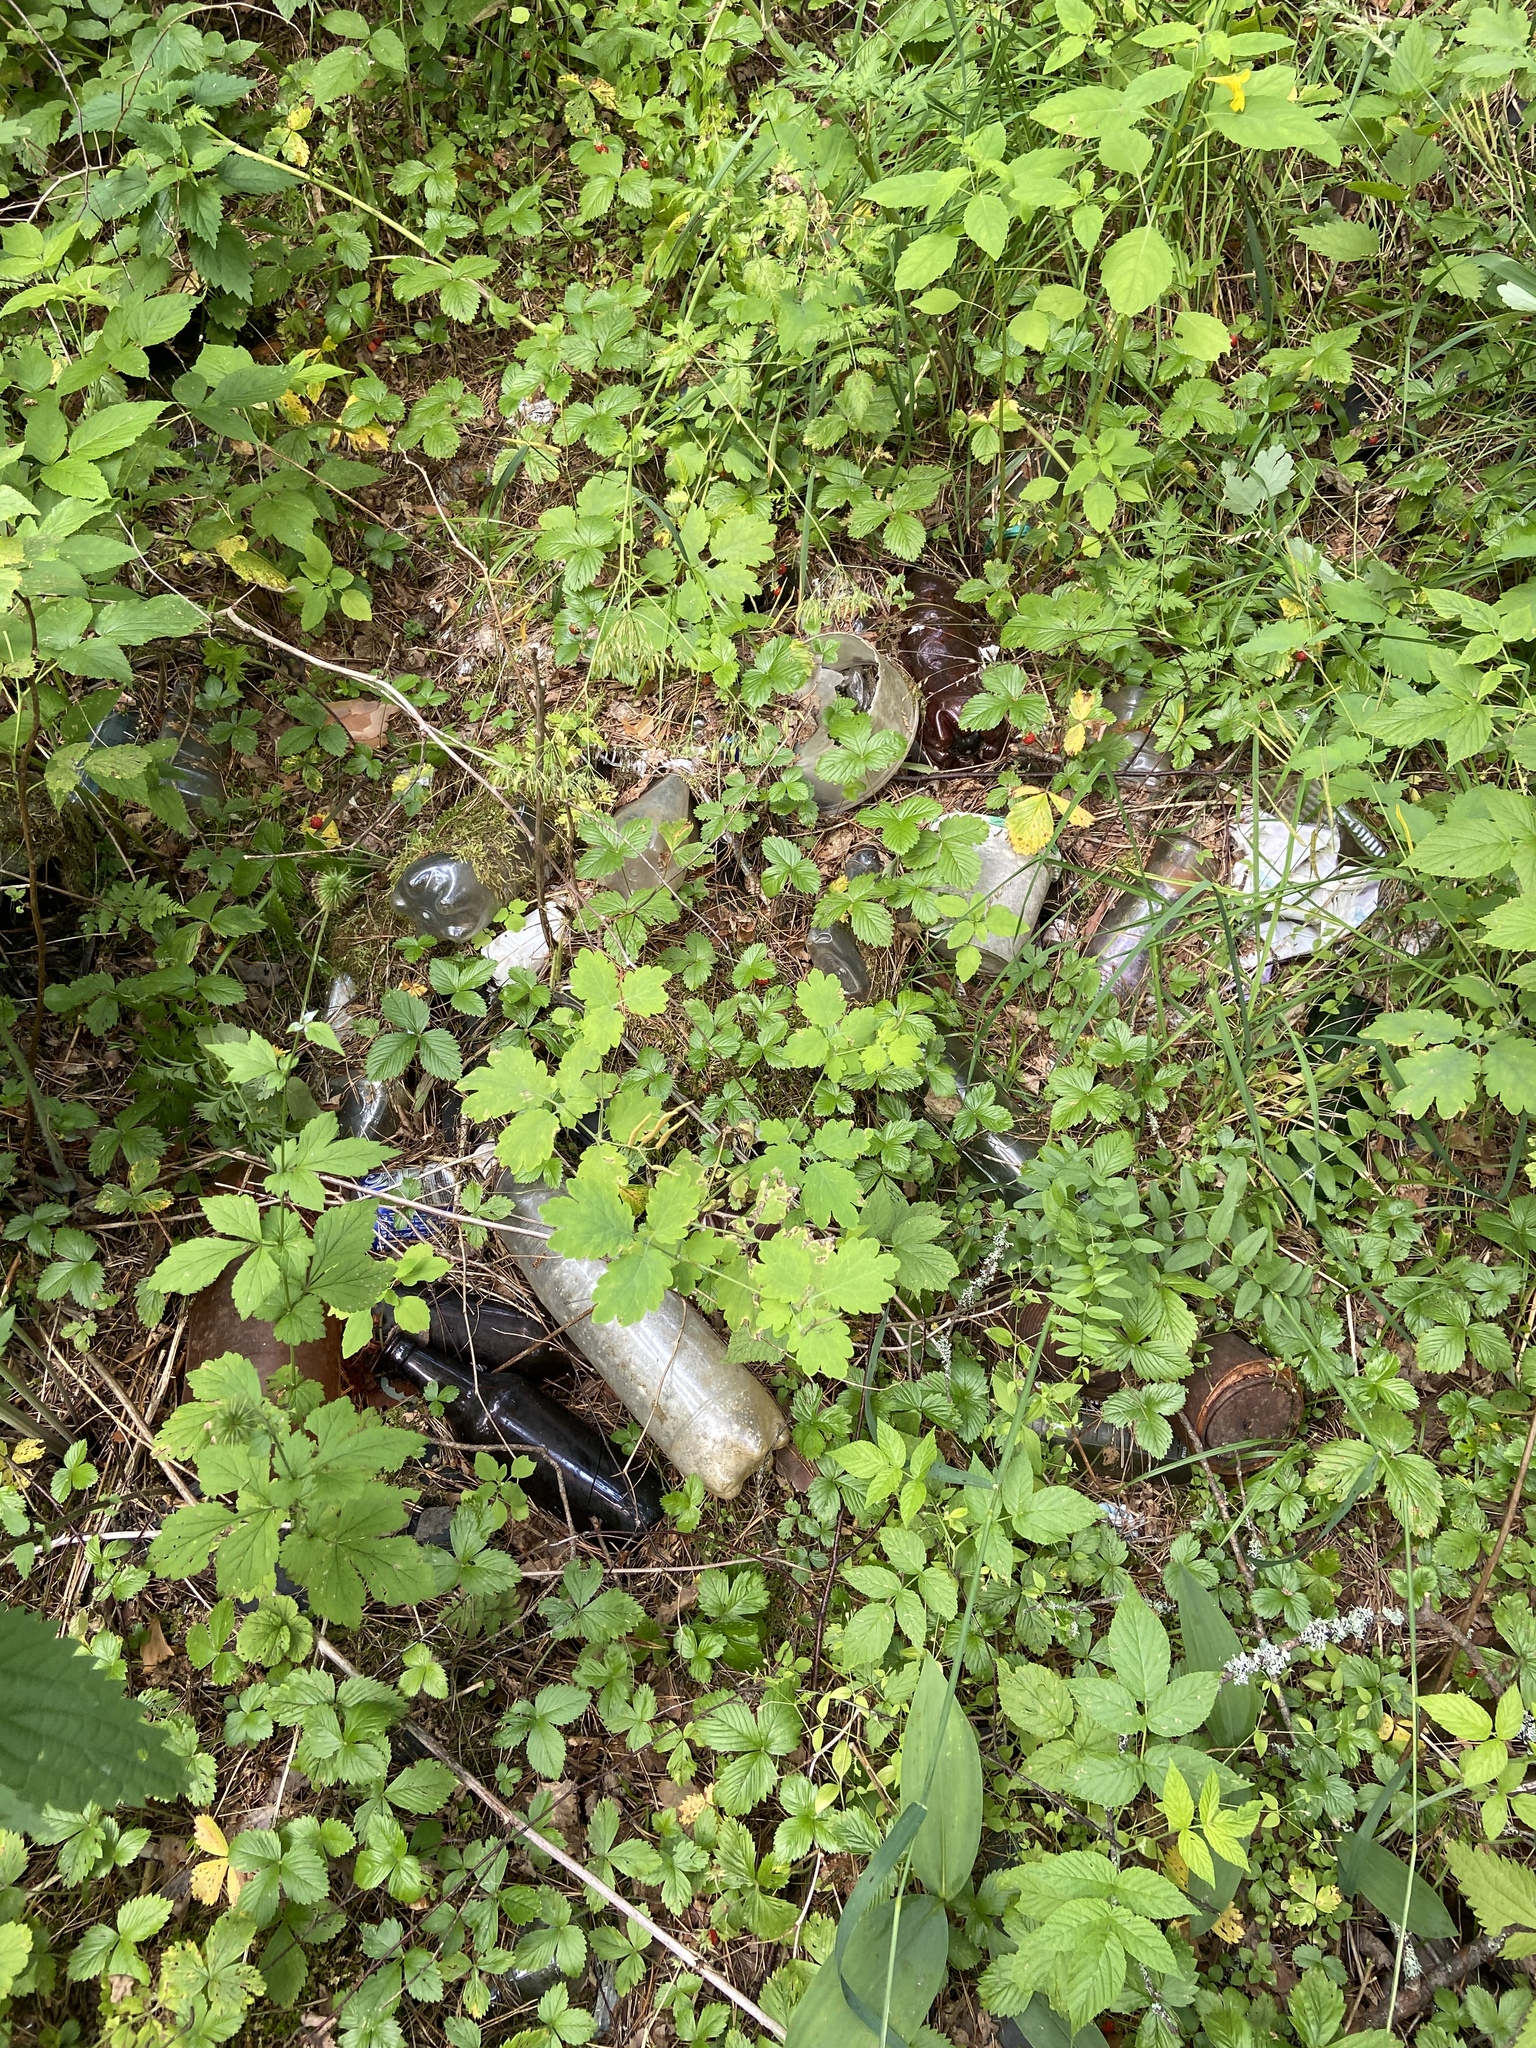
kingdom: Plantae
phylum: Tracheophyta
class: Magnoliopsida
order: Ranunculales
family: Papaveraceae
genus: Chelidonium
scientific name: Chelidonium majus
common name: Greater celandine
